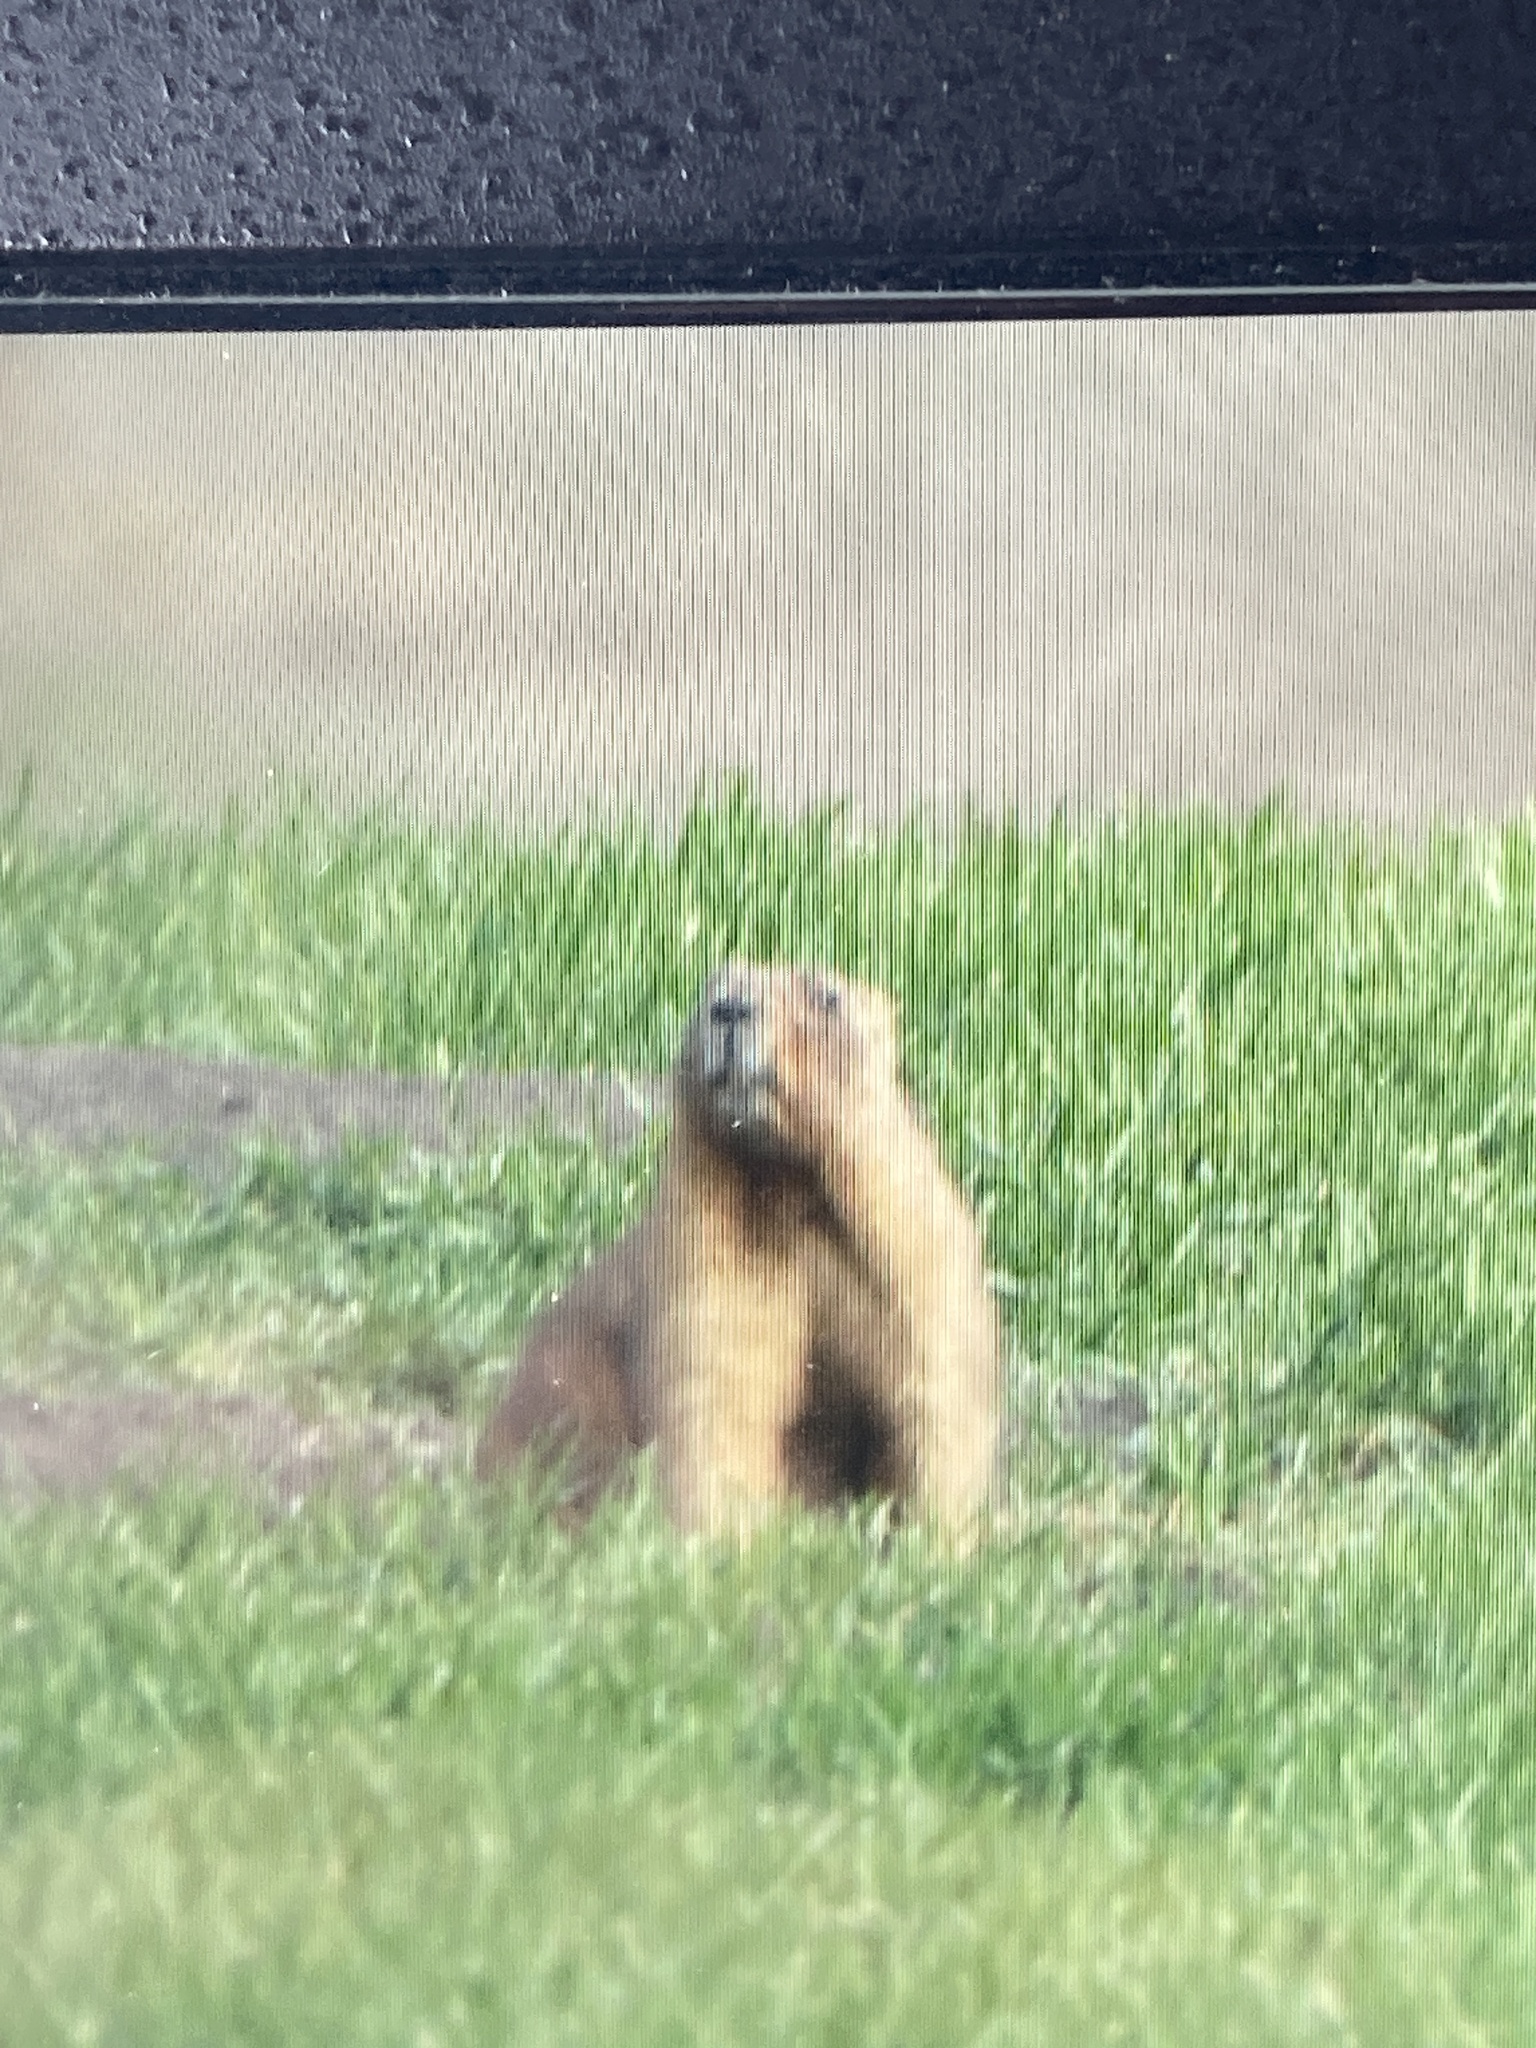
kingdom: Animalia
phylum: Chordata
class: Mammalia
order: Rodentia
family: Sciuridae
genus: Marmota
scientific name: Marmota bobak
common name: Bobak marmot
